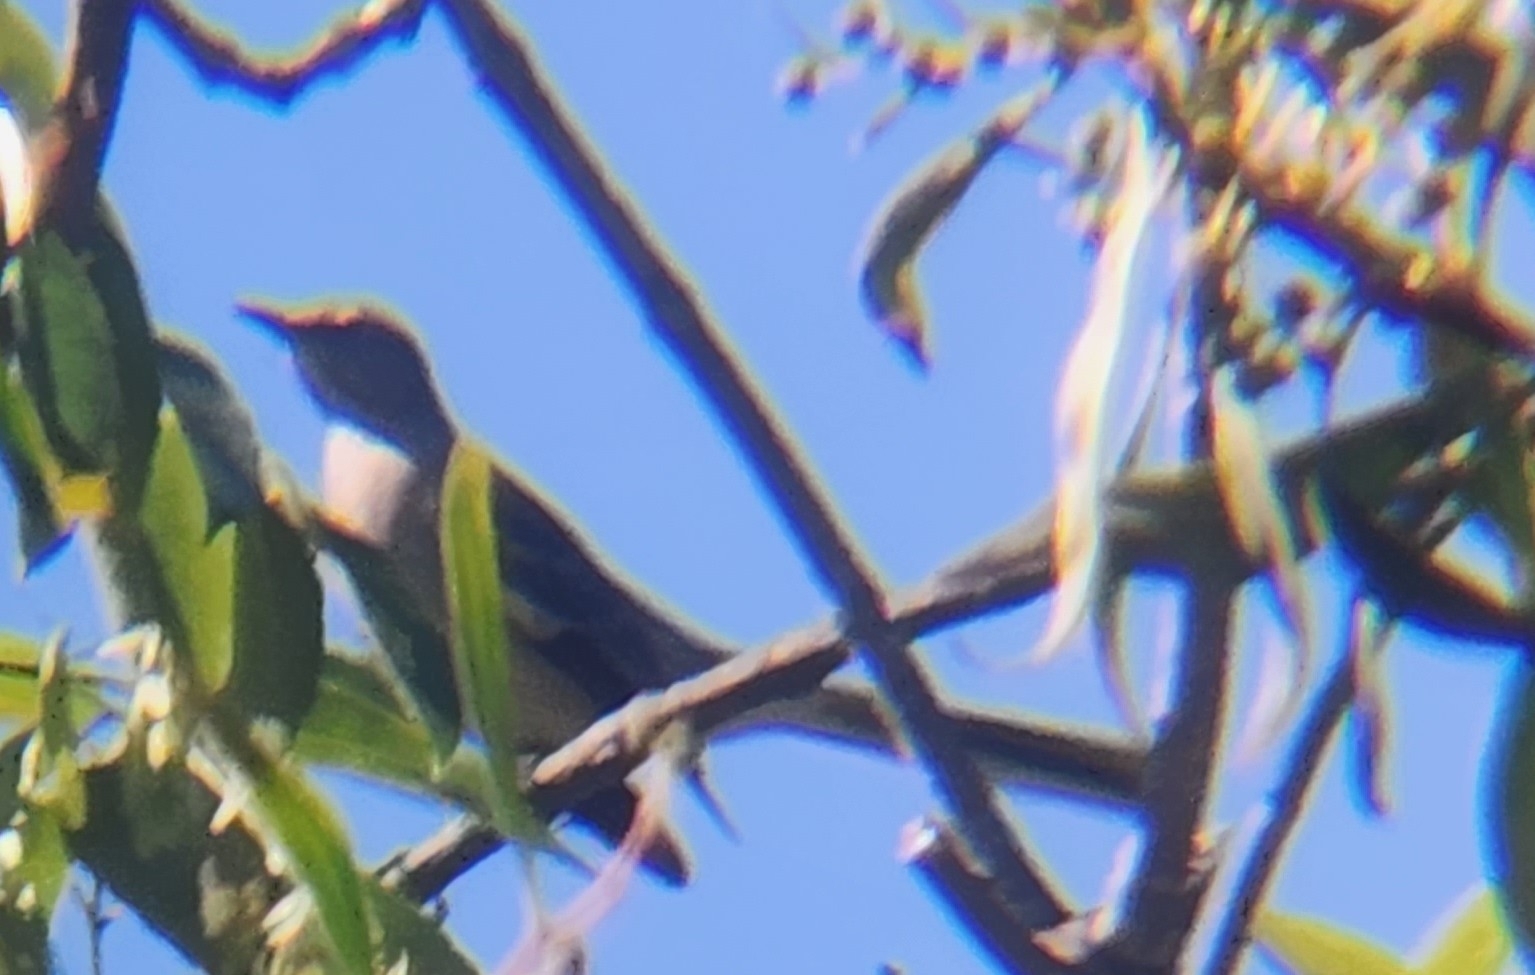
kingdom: Animalia
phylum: Chordata
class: Aves
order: Passeriformes
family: Mimidae
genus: Mimus
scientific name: Mimus polyglottos
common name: Northern mockingbird
